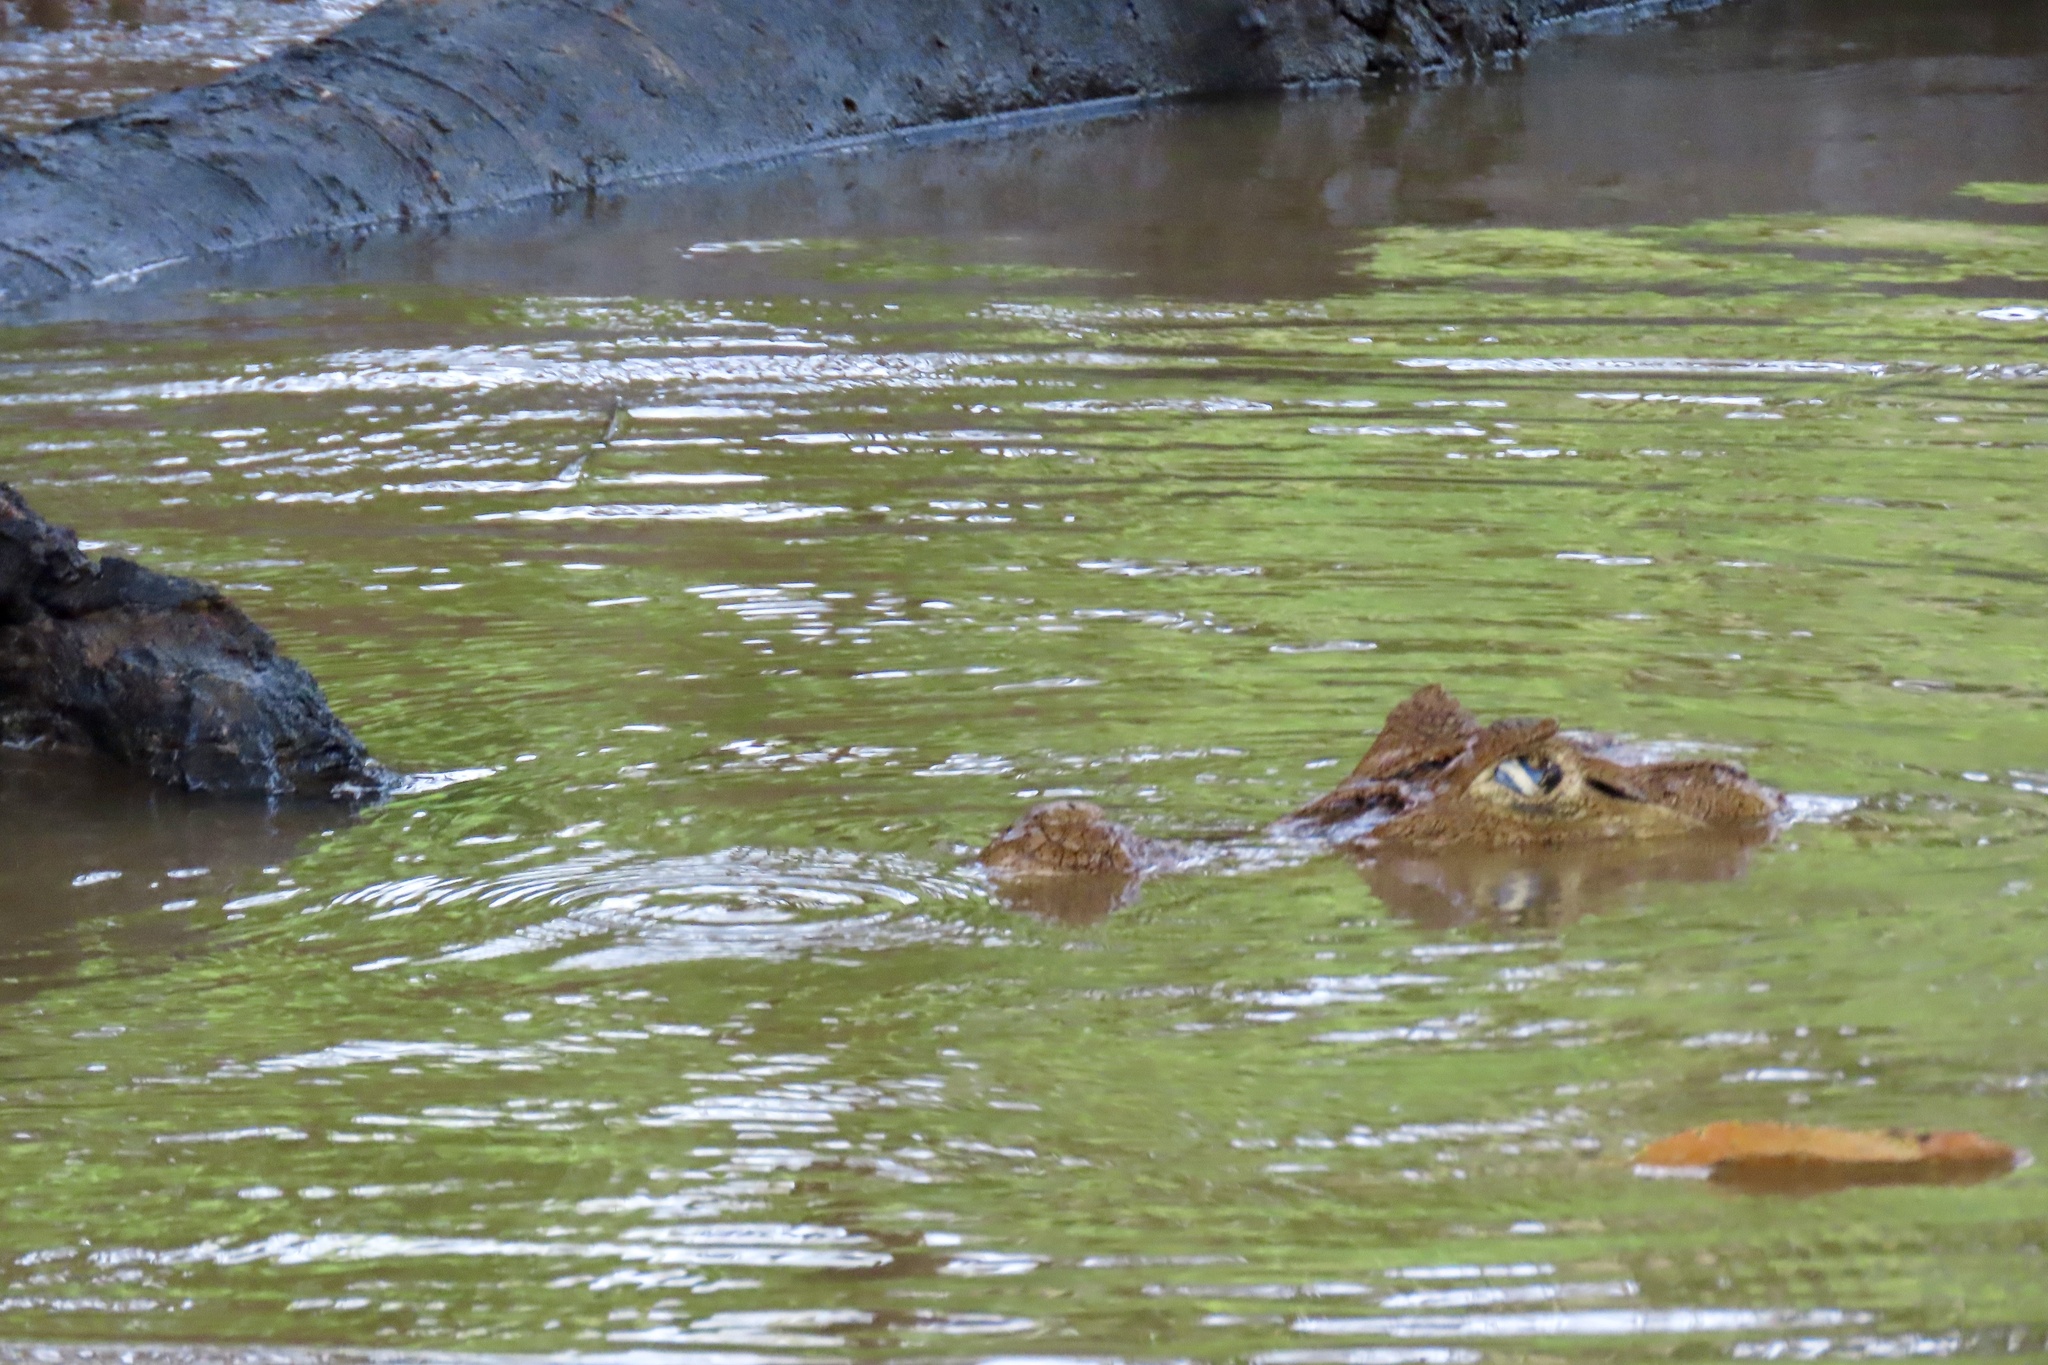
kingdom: Animalia
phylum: Chordata
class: Crocodylia
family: Alligatoridae
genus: Caiman
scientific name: Caiman crocodilus
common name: Common caiman
